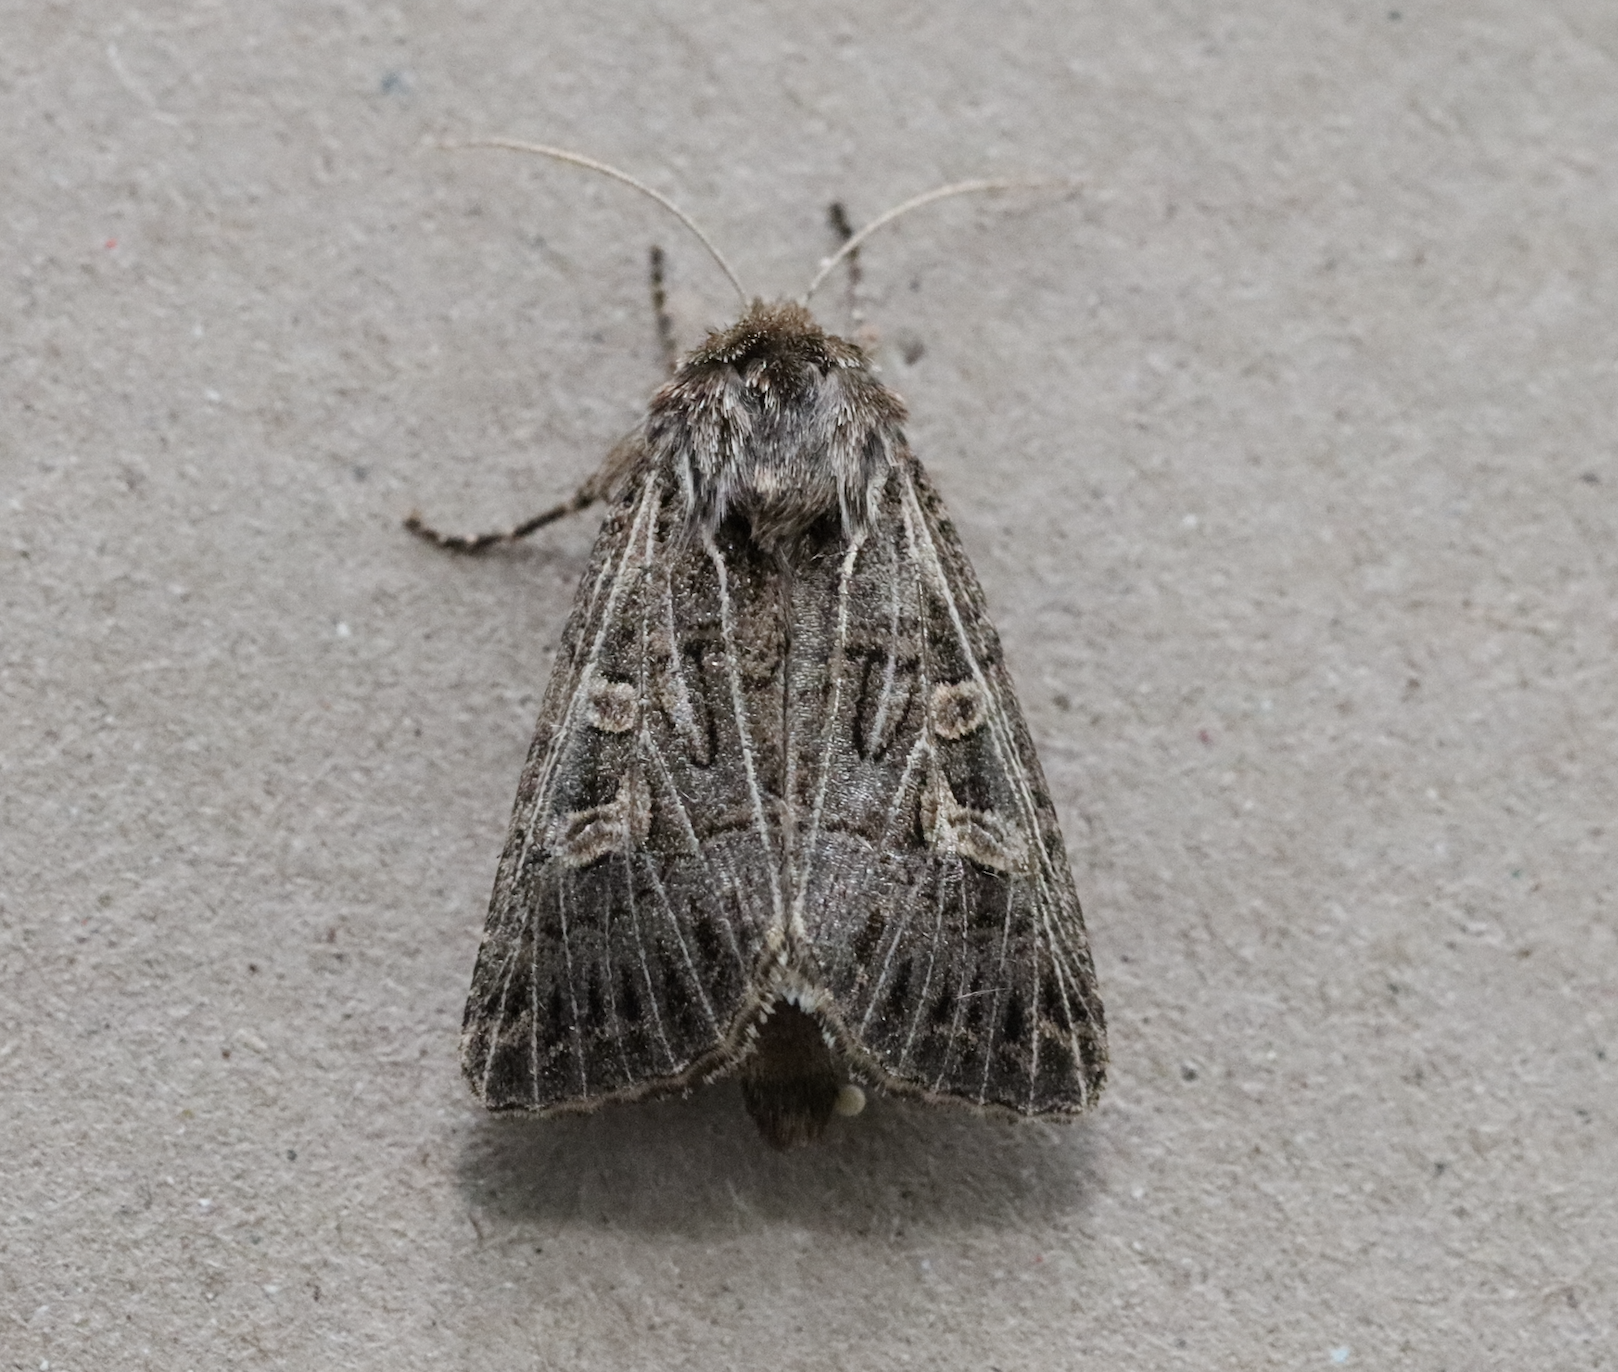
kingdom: Animalia
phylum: Arthropoda
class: Insecta
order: Lepidoptera
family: Noctuidae
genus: Tholera
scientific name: Tholera decimalis
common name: Feathered gothic
